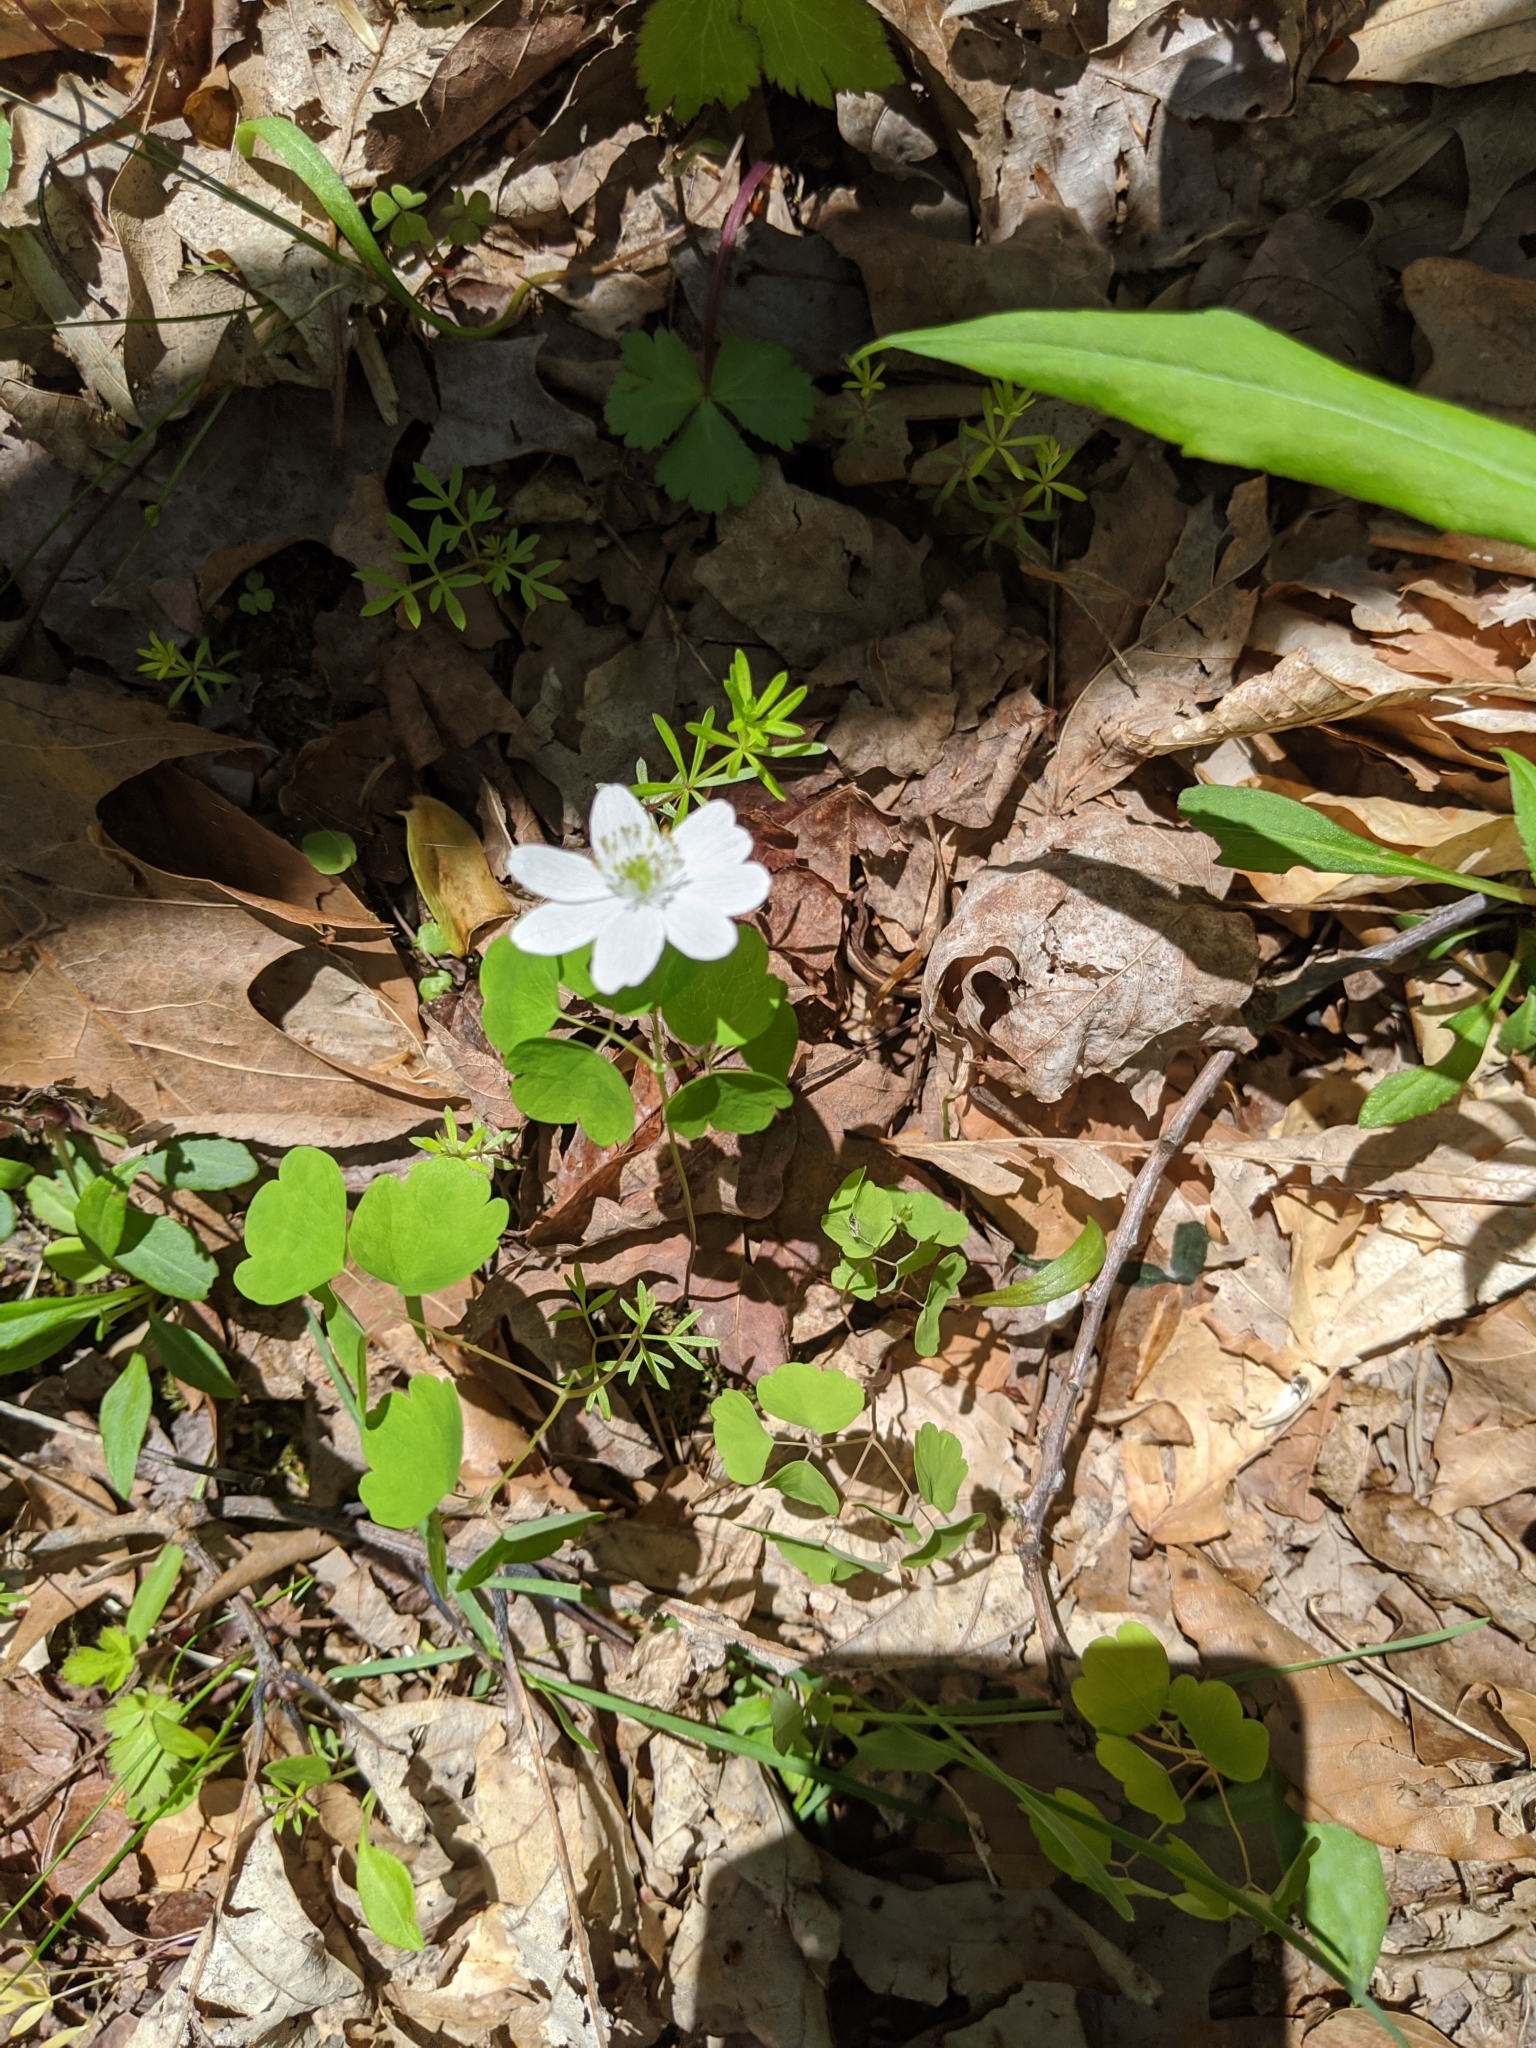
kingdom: Plantae
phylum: Tracheophyta
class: Magnoliopsida
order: Ranunculales
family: Ranunculaceae
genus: Thalictrum
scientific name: Thalictrum thalictroides
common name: Rue-anemone
